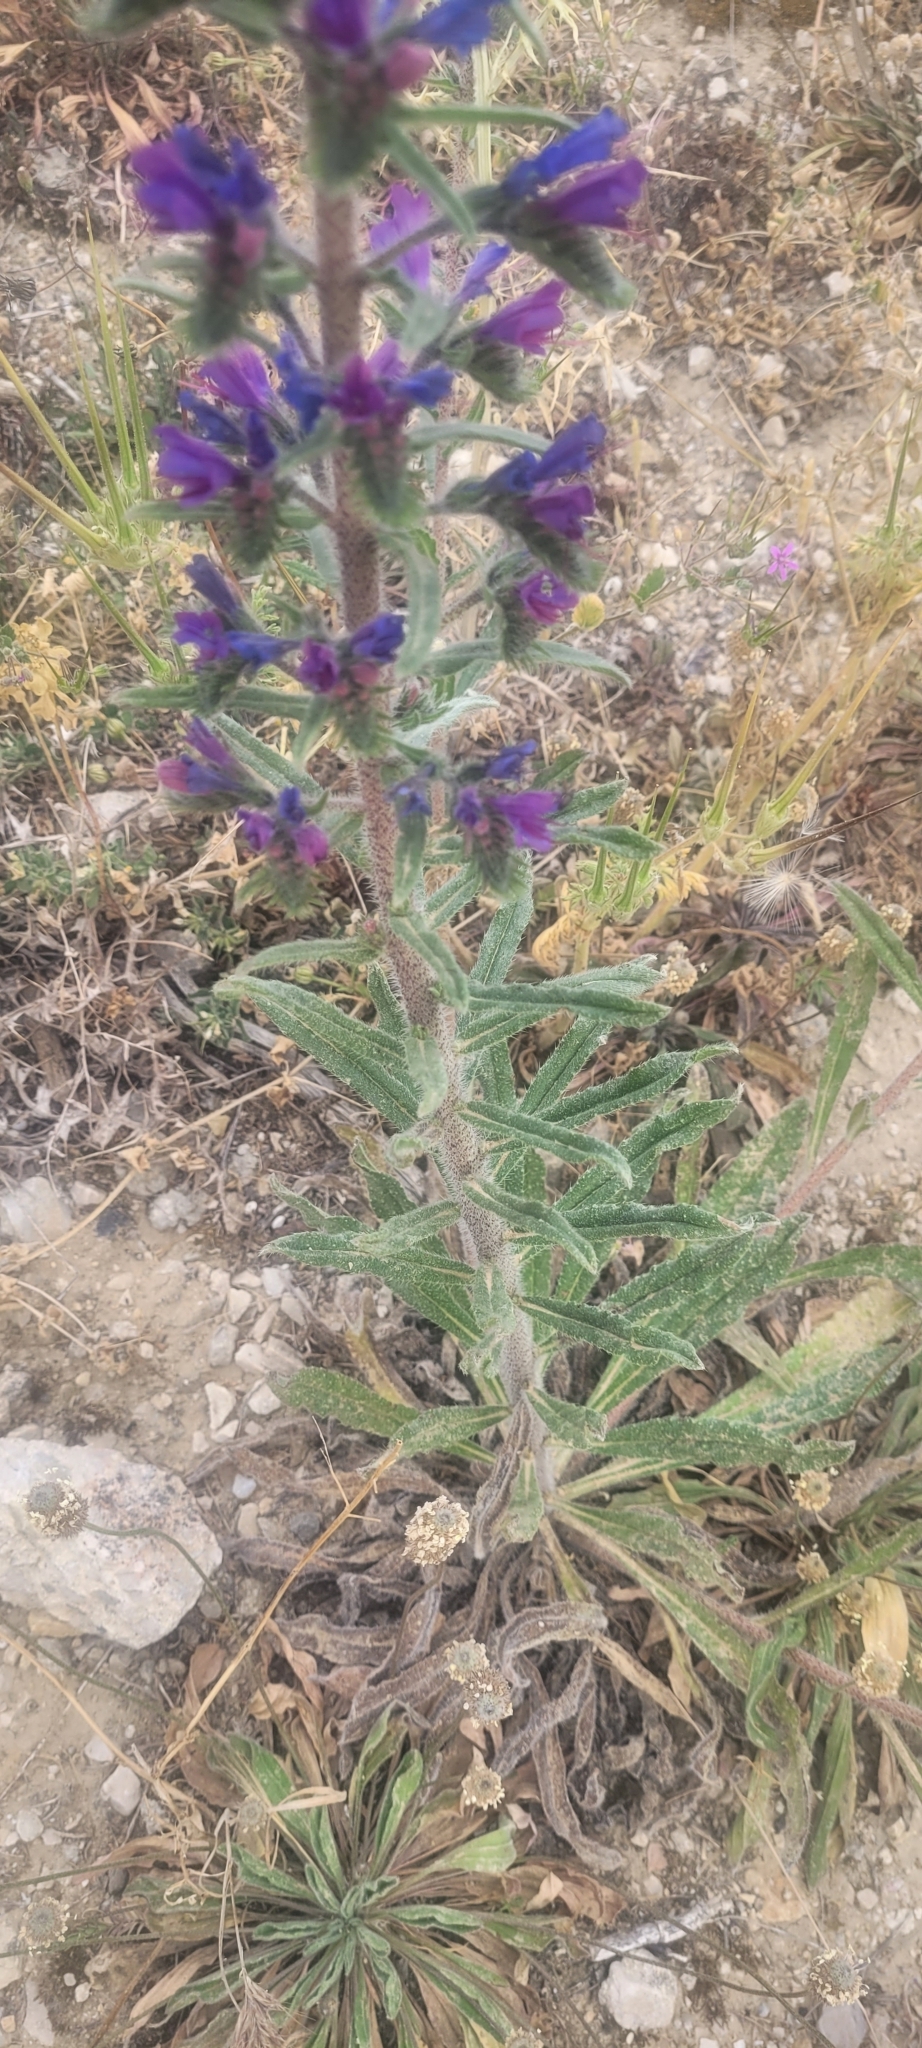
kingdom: Plantae
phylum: Tracheophyta
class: Magnoliopsida
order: Boraginales
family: Boraginaceae
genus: Echium
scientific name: Echium vulgare
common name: Common viper's bugloss
